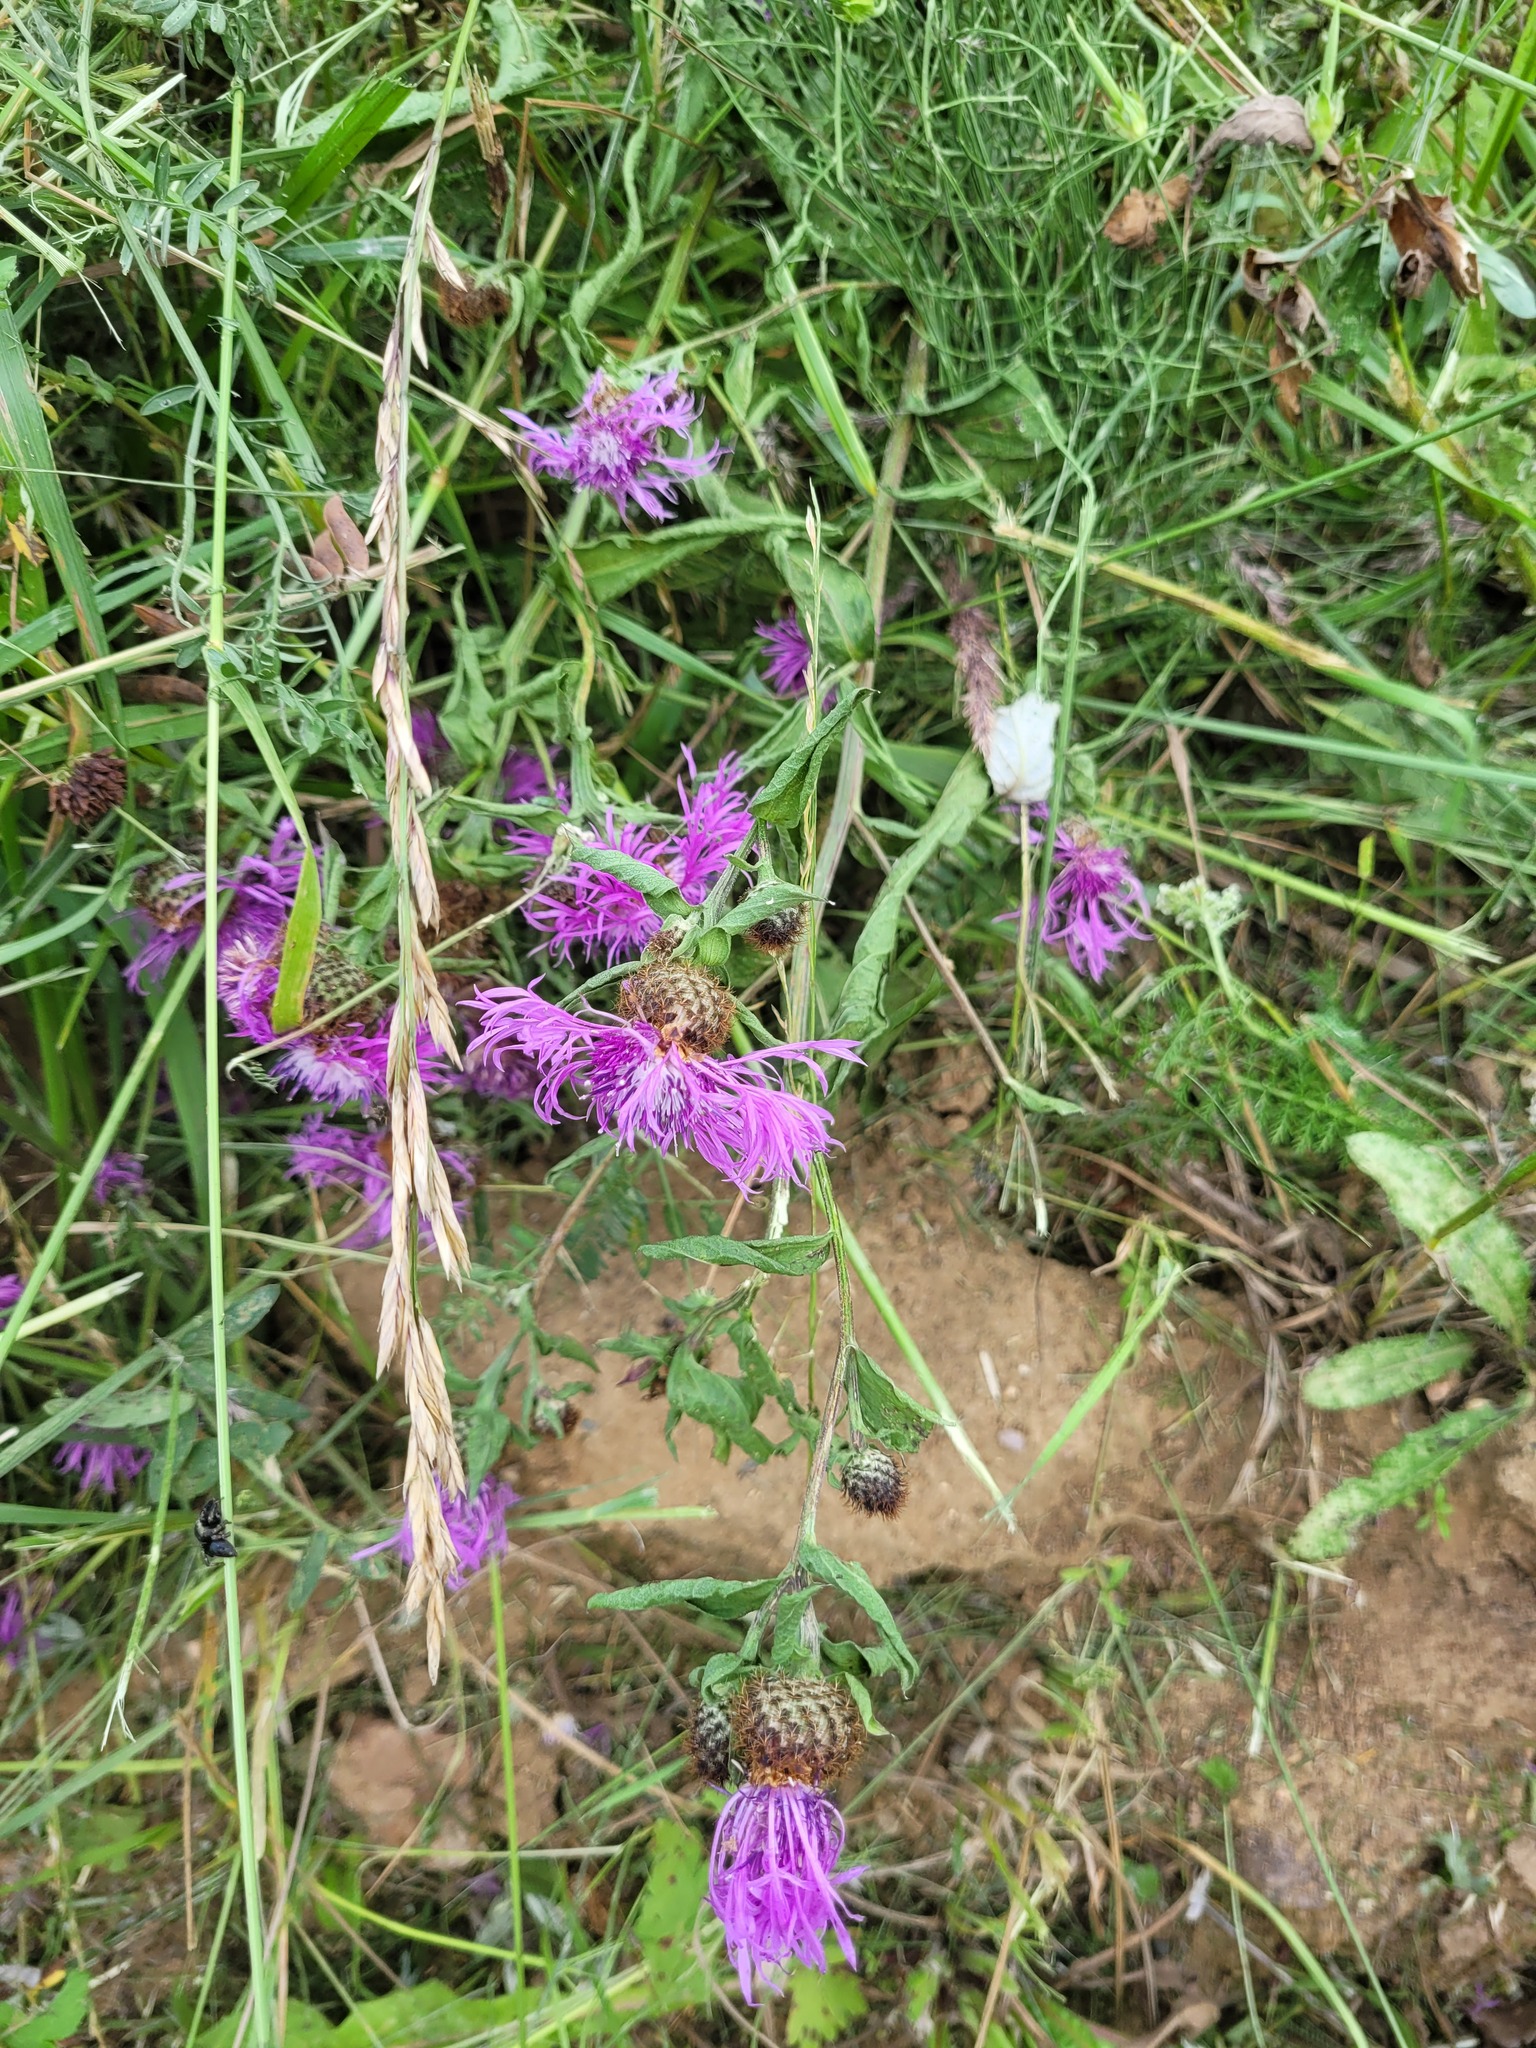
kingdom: Plantae
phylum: Tracheophyta
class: Magnoliopsida
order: Asterales
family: Asteraceae
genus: Centaurea
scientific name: Centaurea phrygia
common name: Wig knapweed
